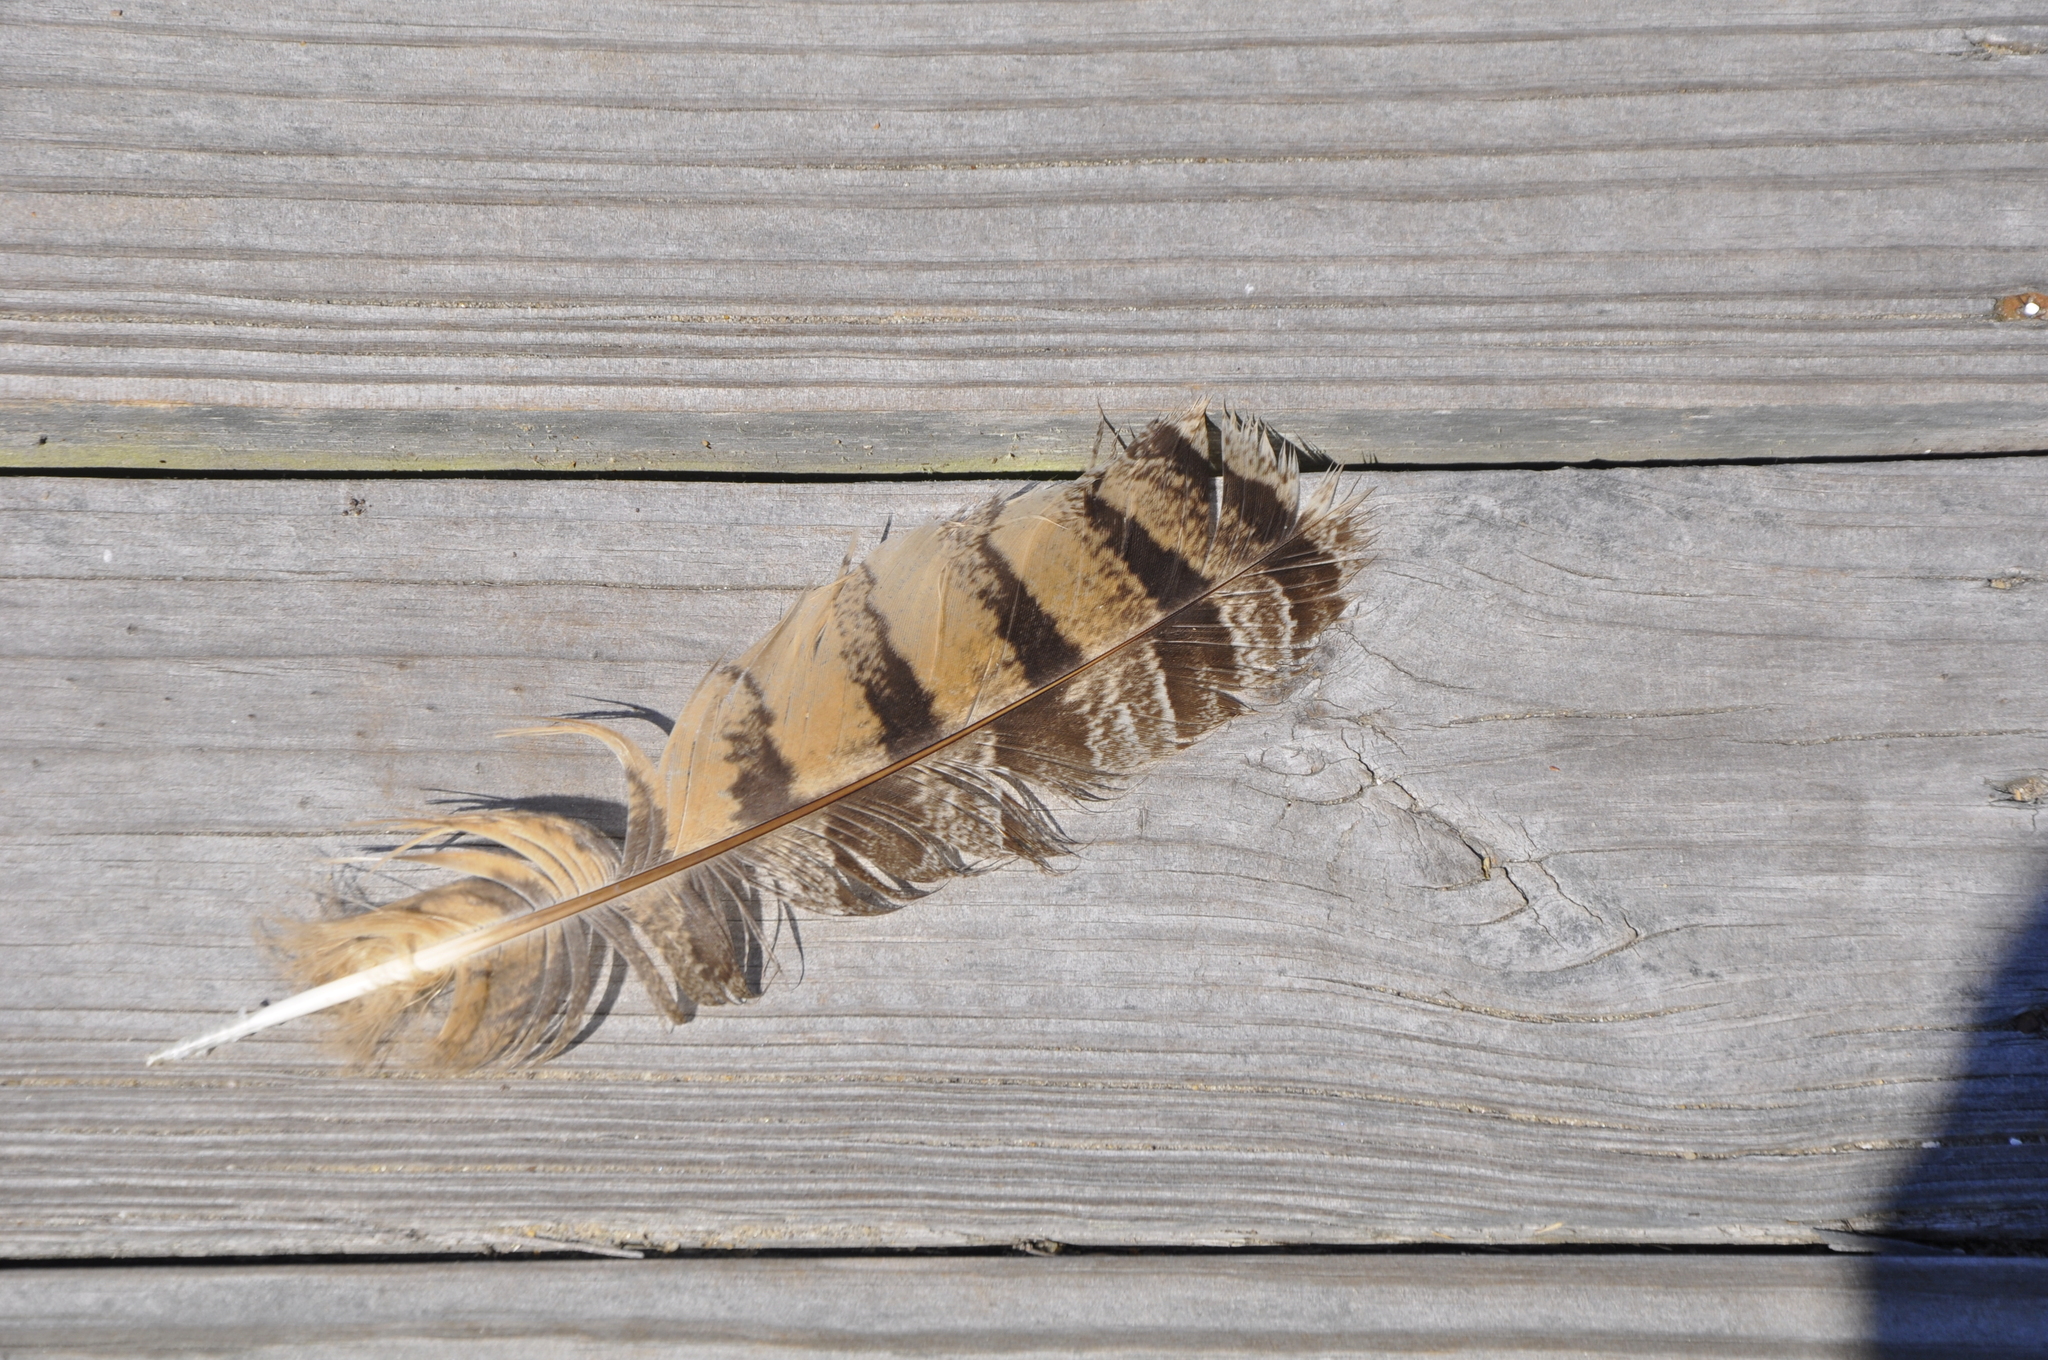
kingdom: Animalia
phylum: Chordata
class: Aves
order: Strigiformes
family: Strigidae
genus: Bubo
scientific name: Bubo virginianus
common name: Great horned owl
